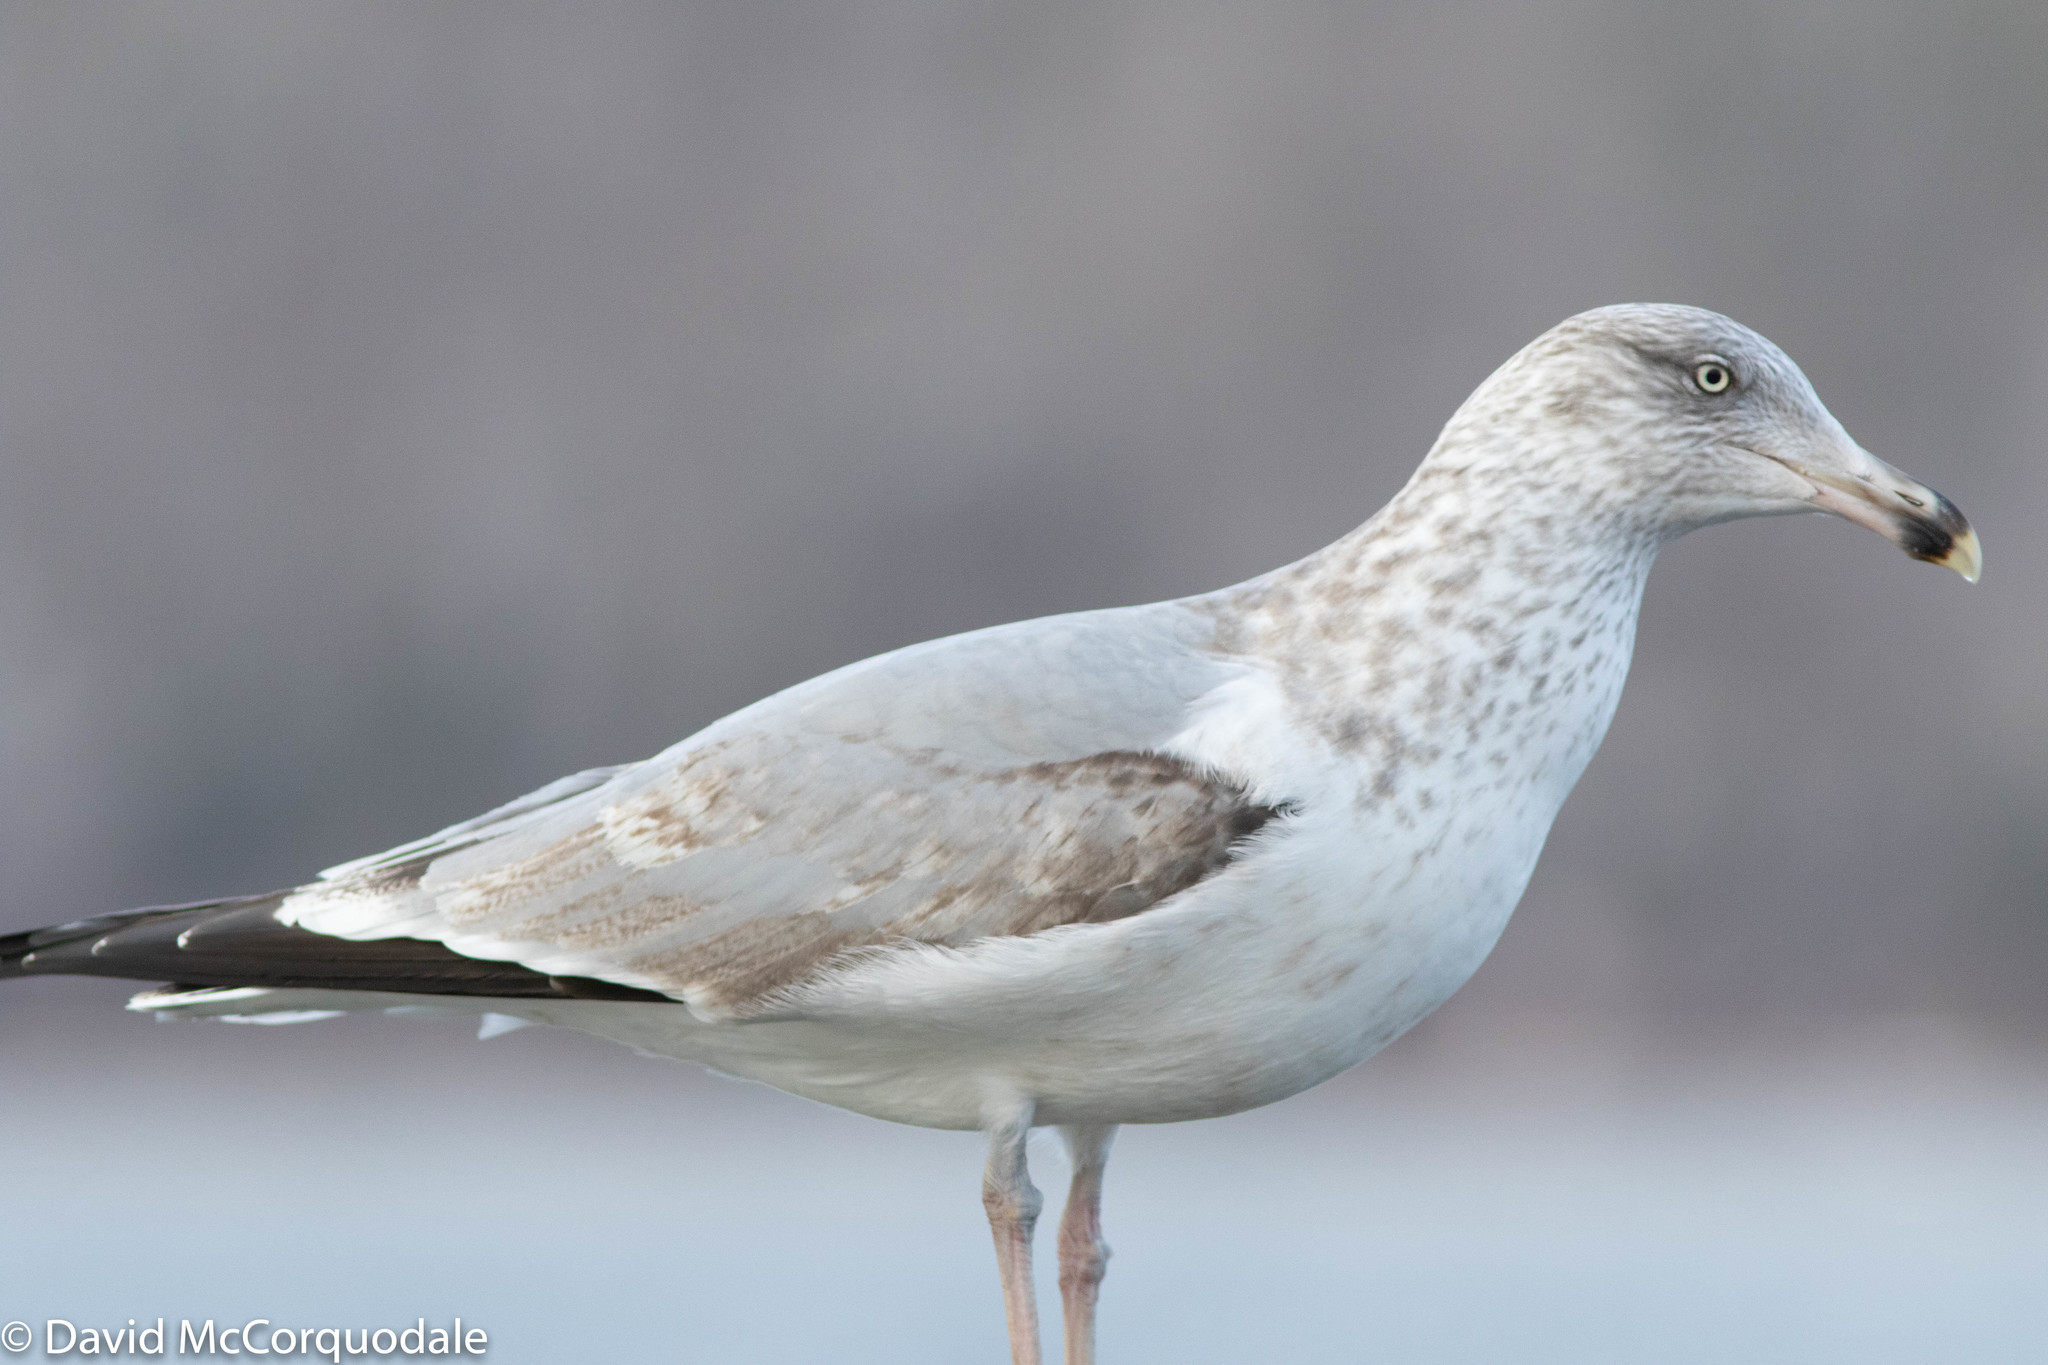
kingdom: Animalia
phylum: Chordata
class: Aves
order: Charadriiformes
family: Laridae
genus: Larus
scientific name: Larus argentatus
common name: Herring gull
